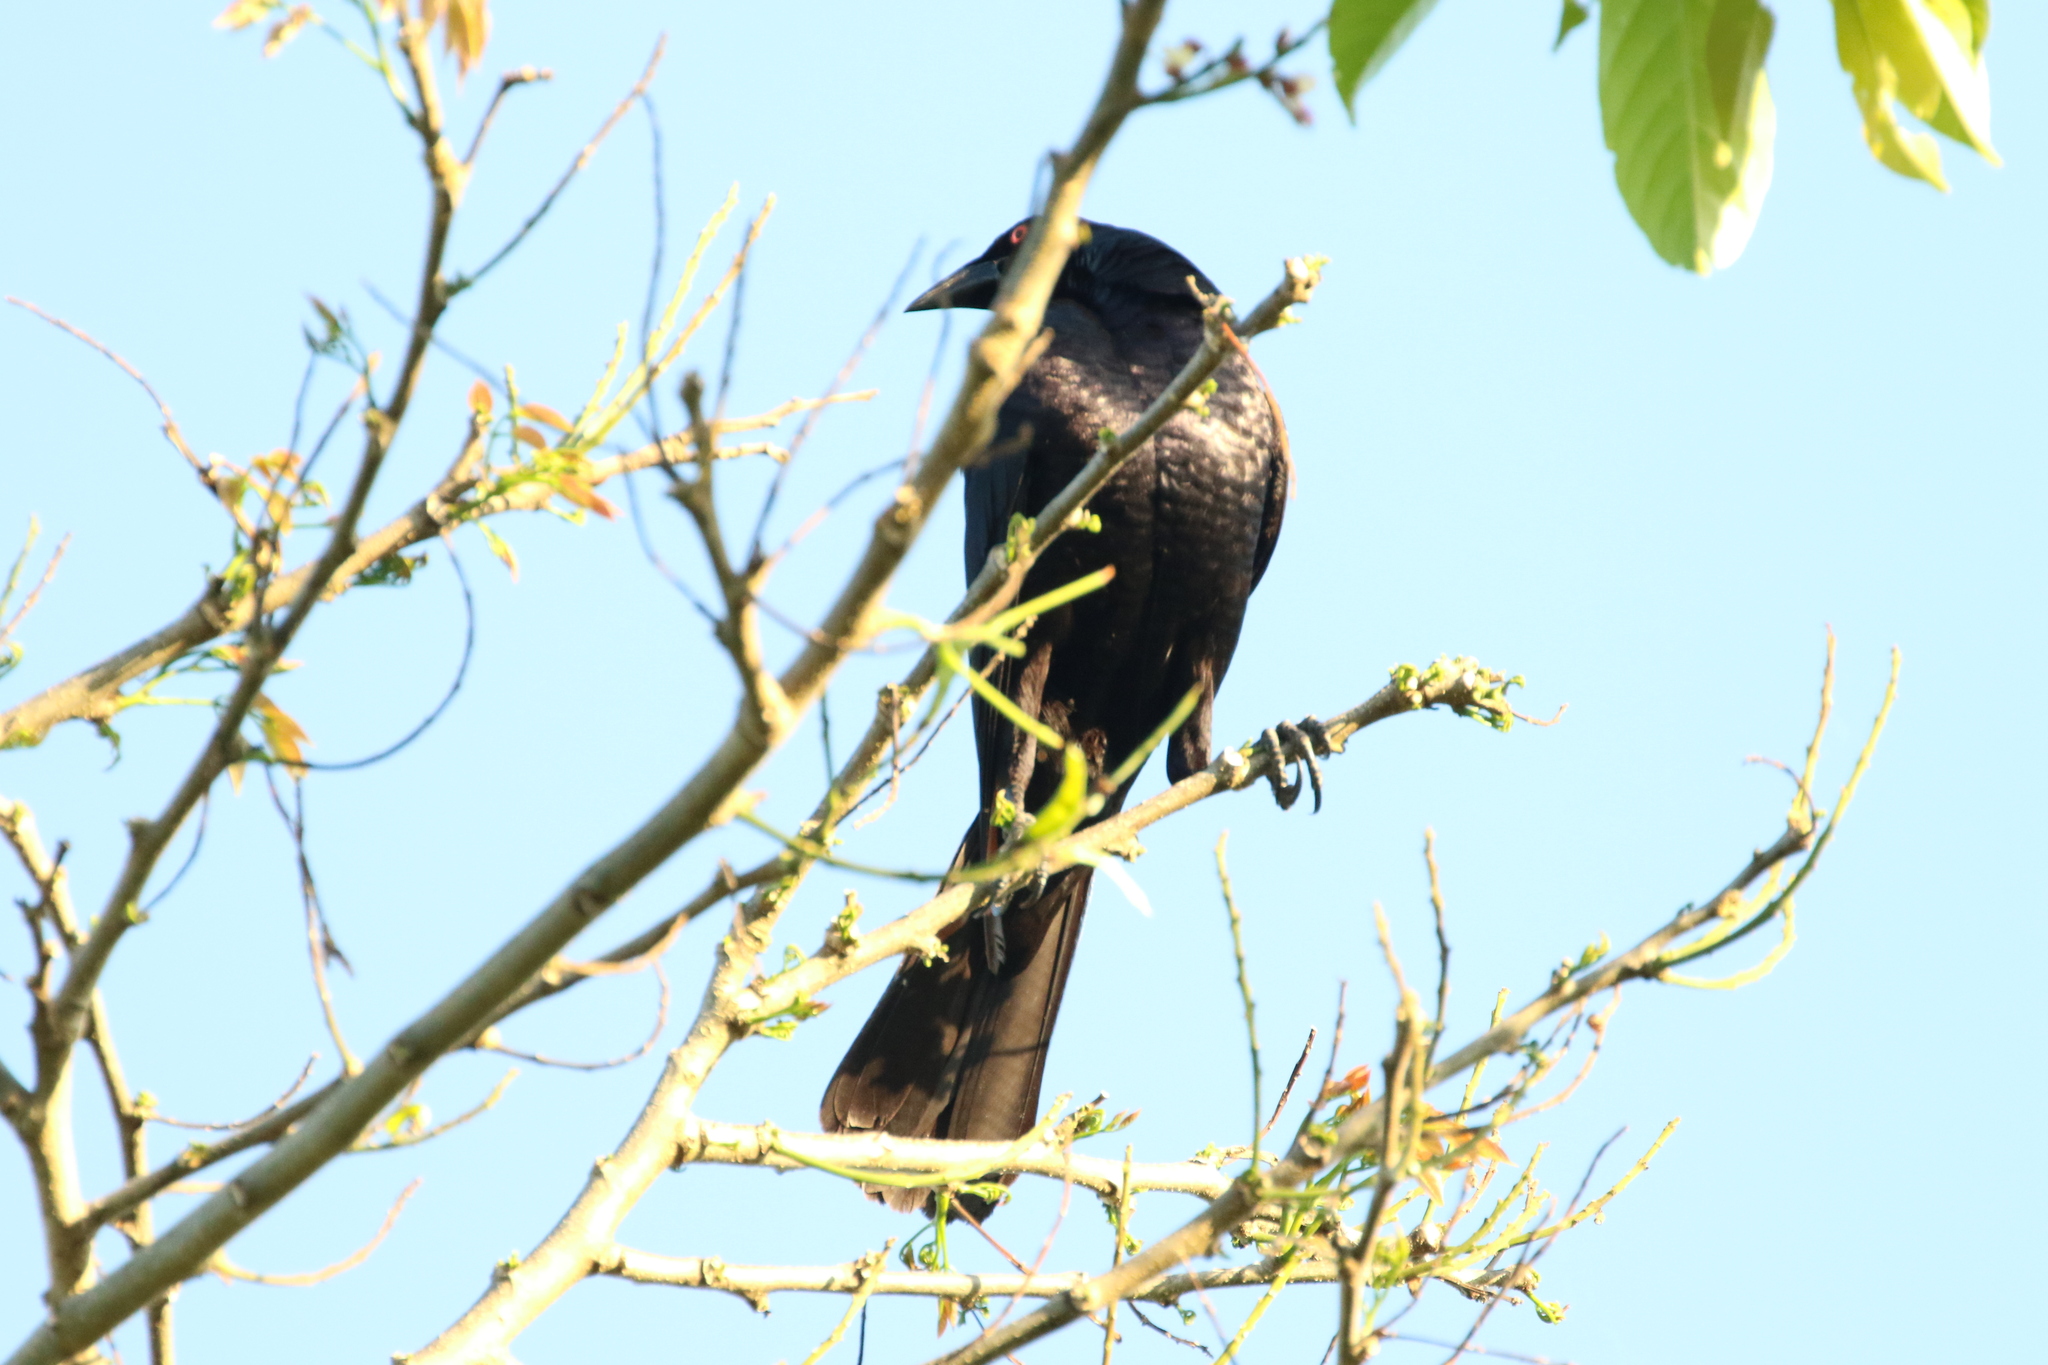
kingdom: Animalia
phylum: Chordata
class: Aves
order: Passeriformes
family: Icteridae
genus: Molothrus
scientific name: Molothrus oryzivorus
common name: Giant cowbird
